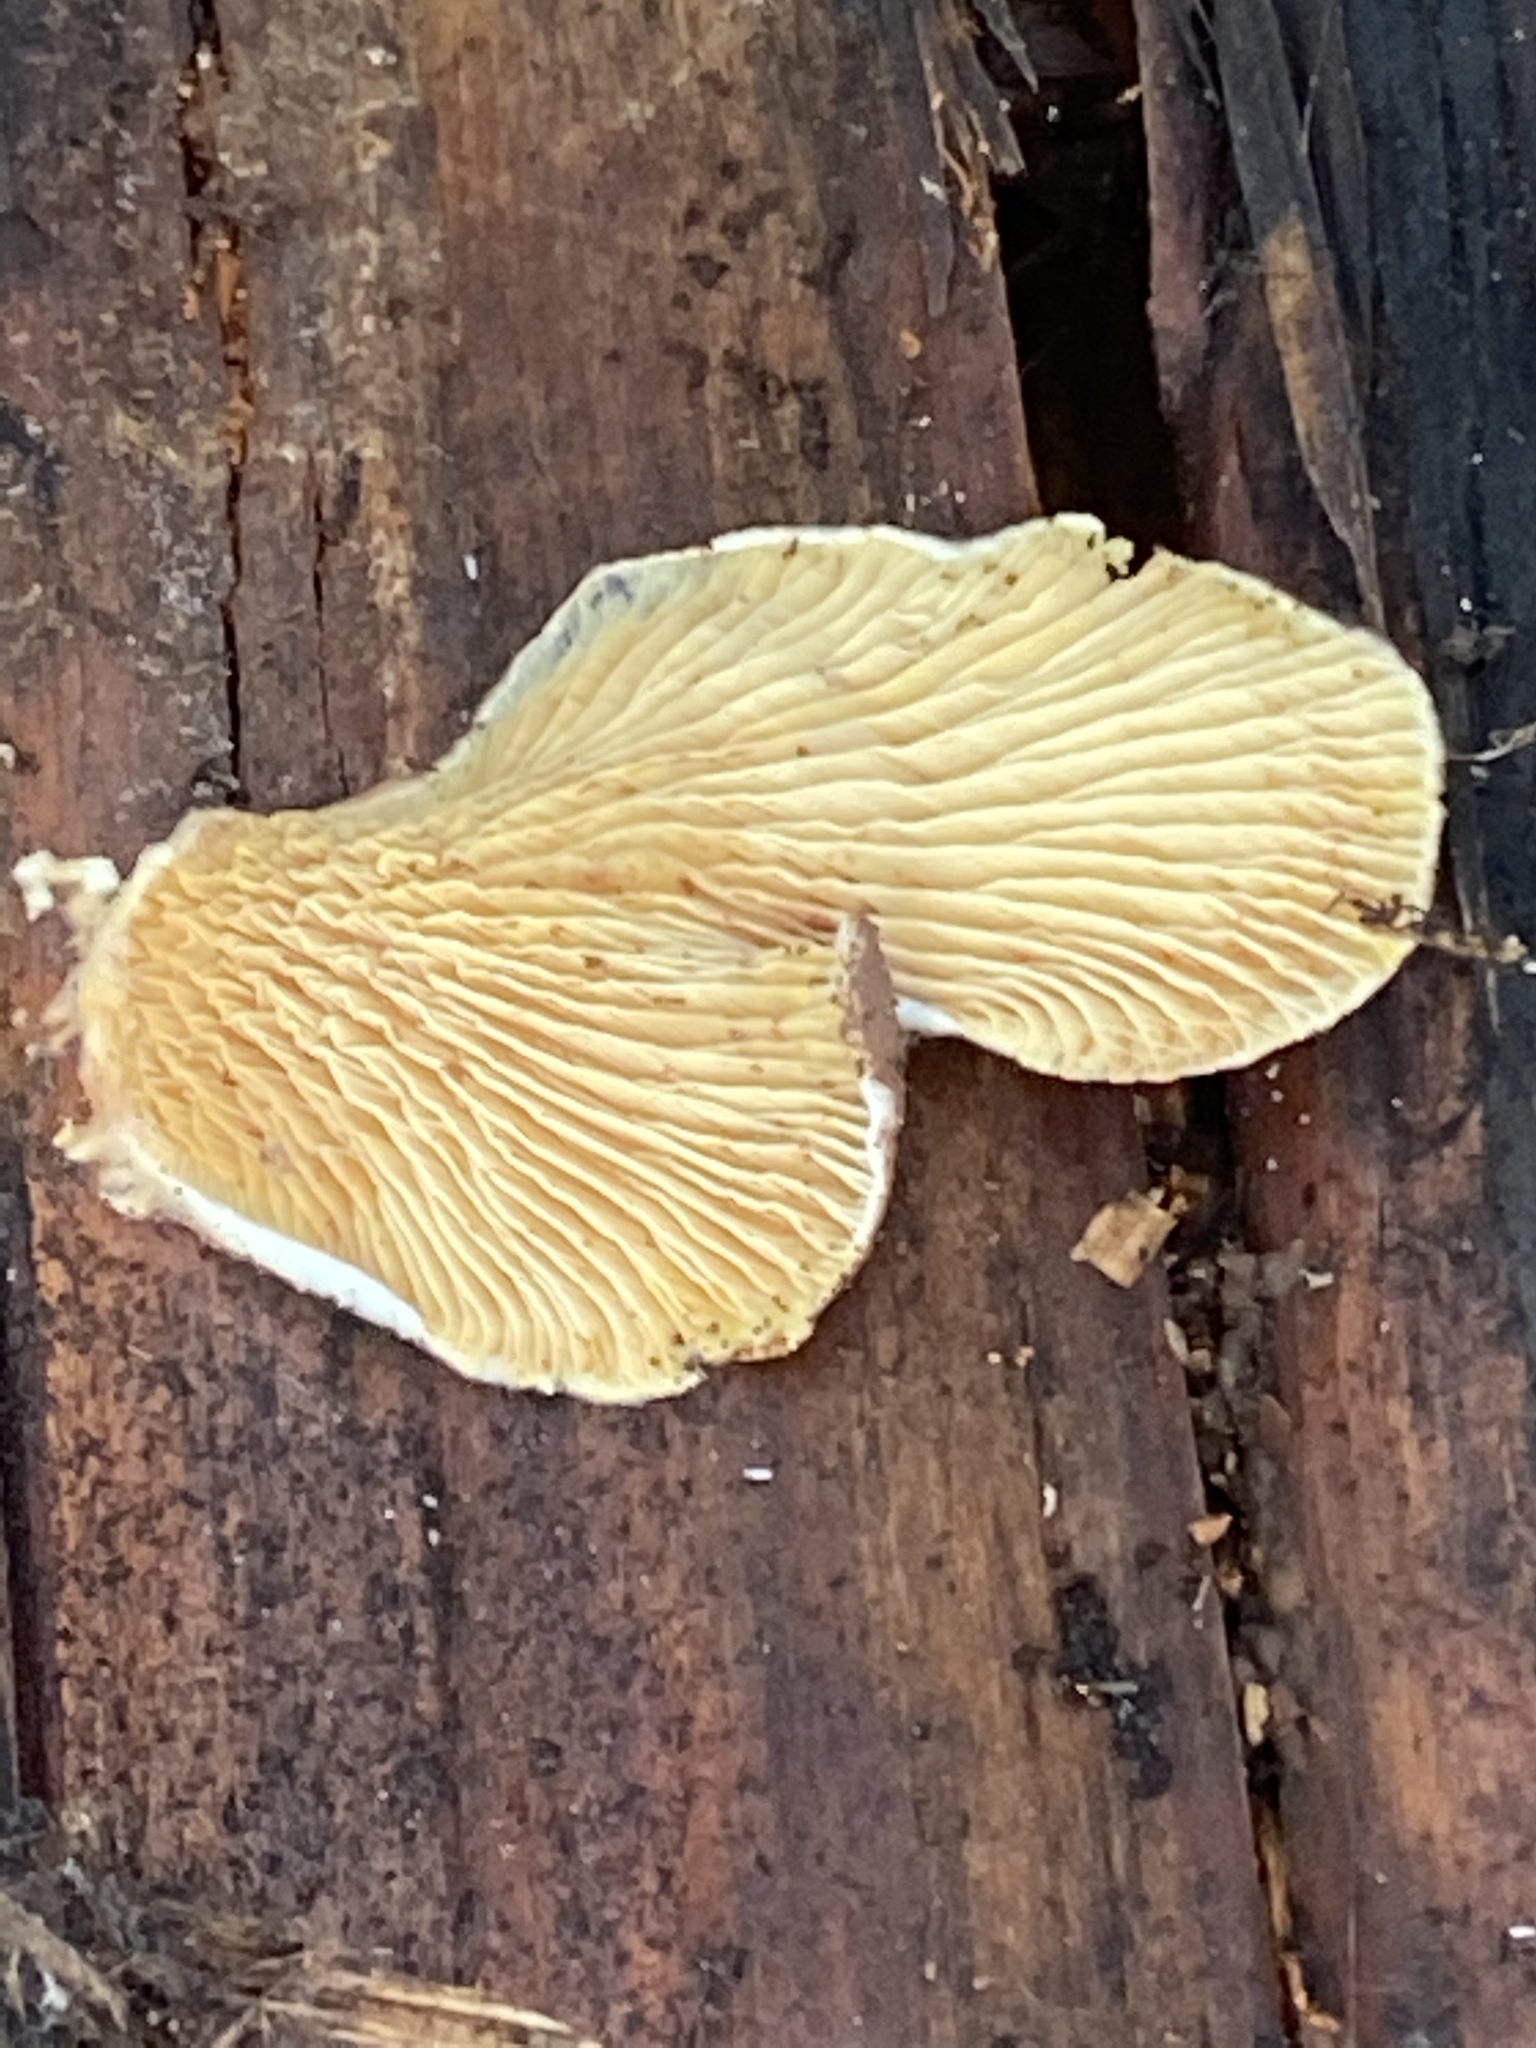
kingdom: Fungi
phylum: Basidiomycota
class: Agaricomycetes
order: Boletales
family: Tapinellaceae
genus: Tapinella
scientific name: Tapinella panuoides
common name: Oyster rollrim
